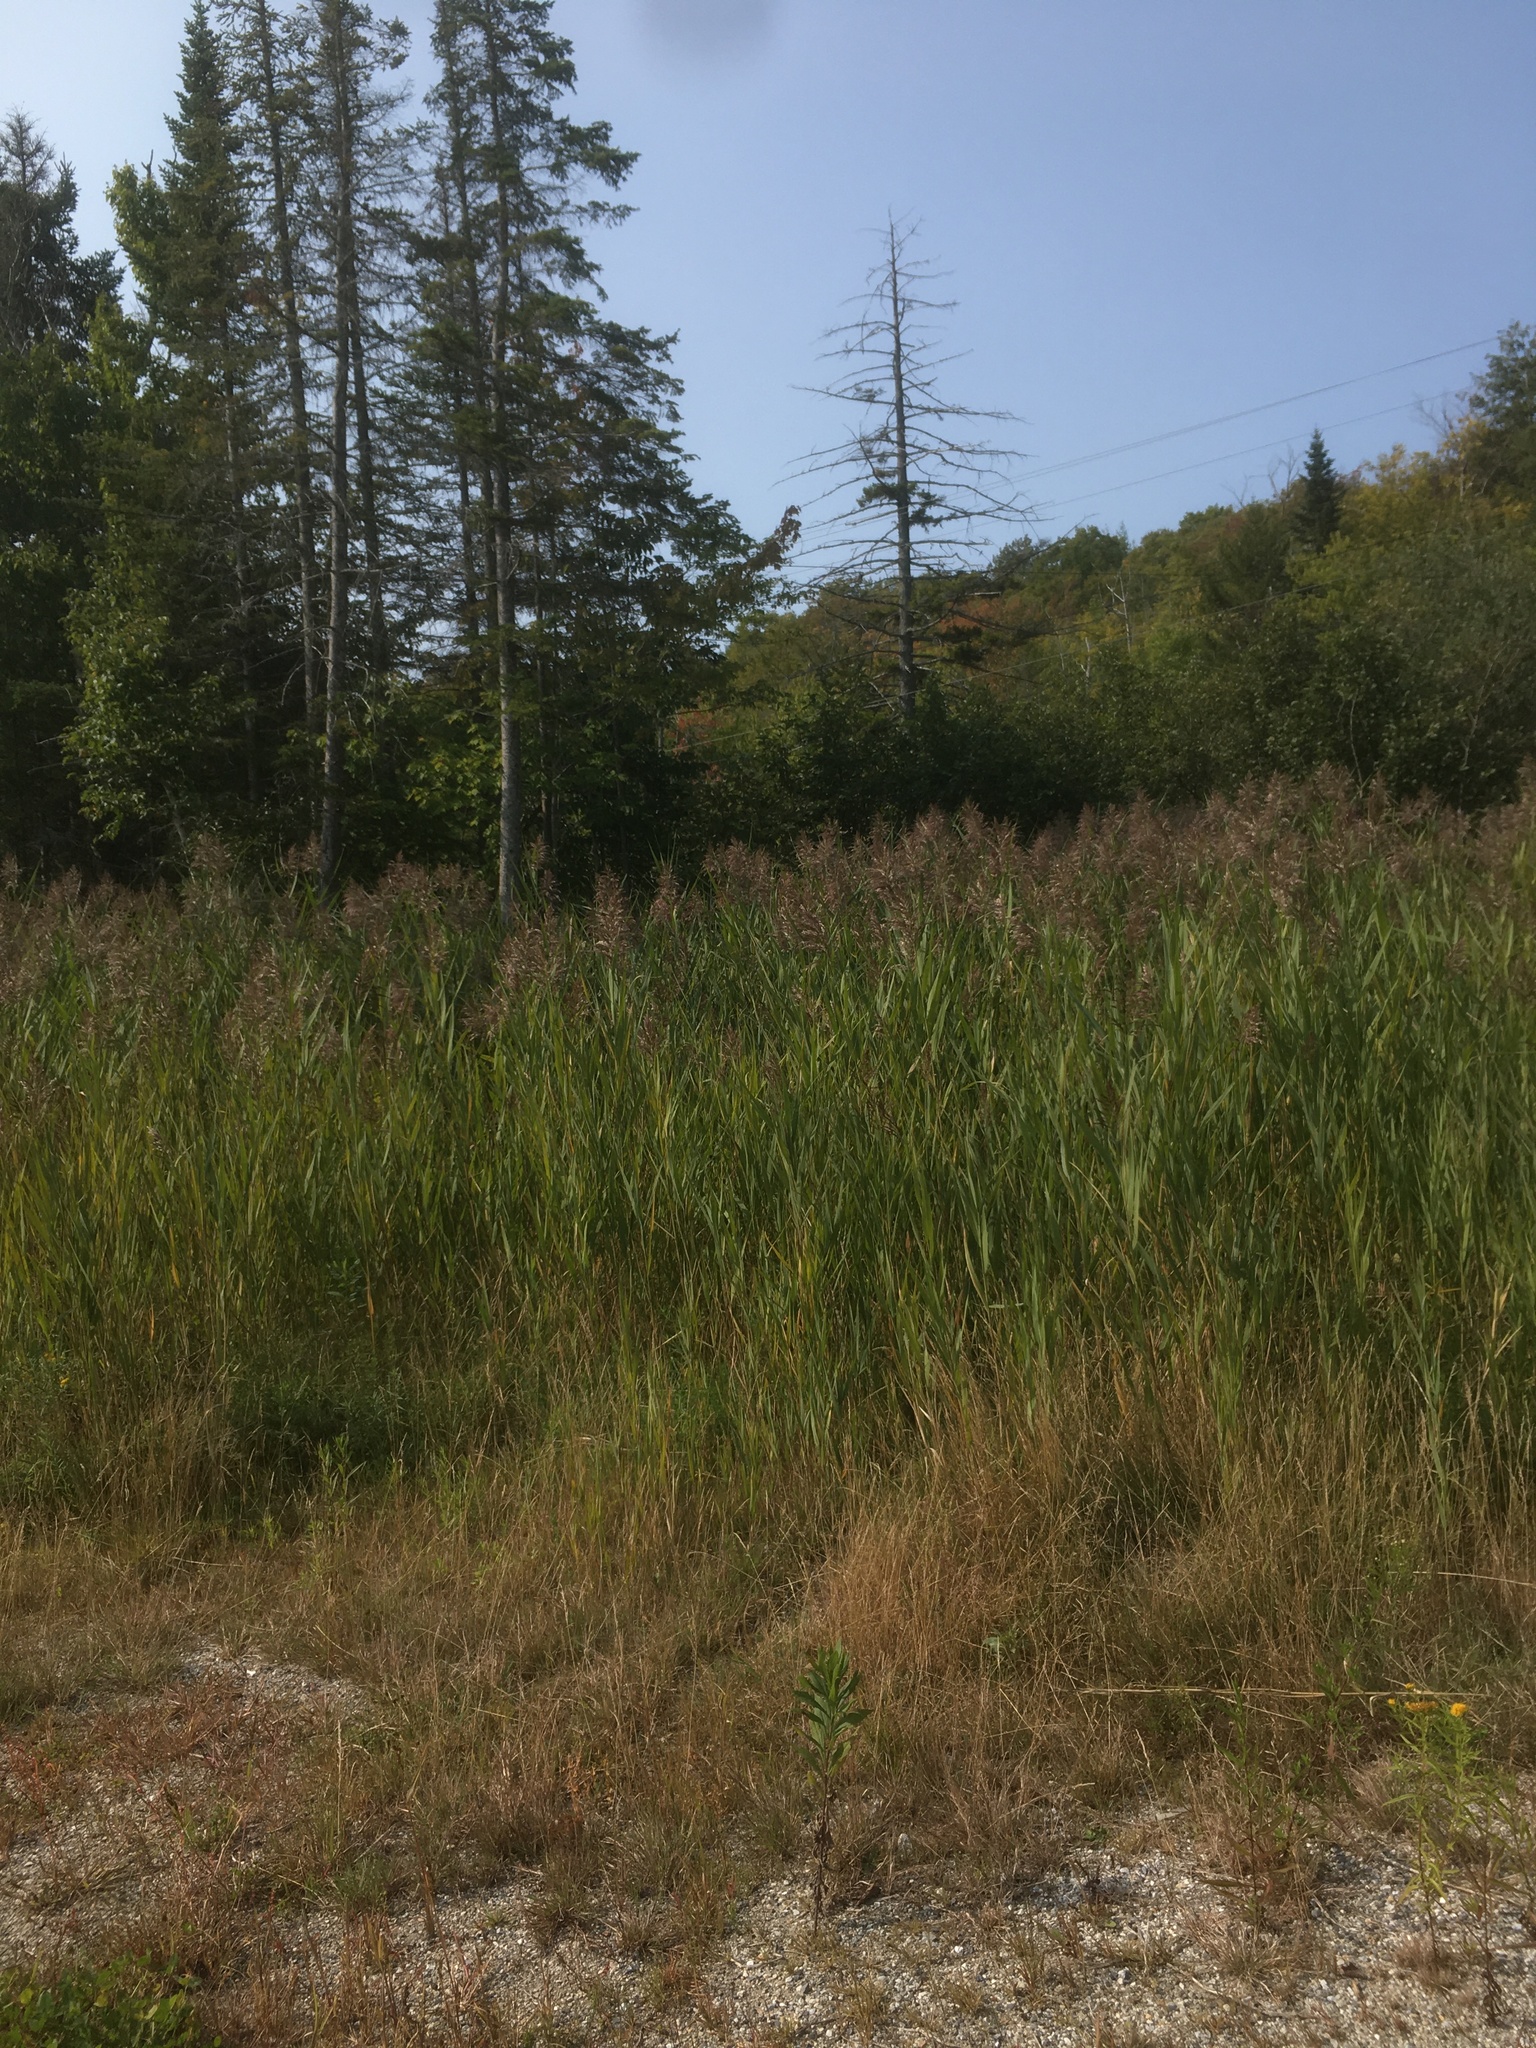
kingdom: Plantae
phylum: Tracheophyta
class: Liliopsida
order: Poales
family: Poaceae
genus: Phragmites
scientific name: Phragmites australis
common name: Common reed
